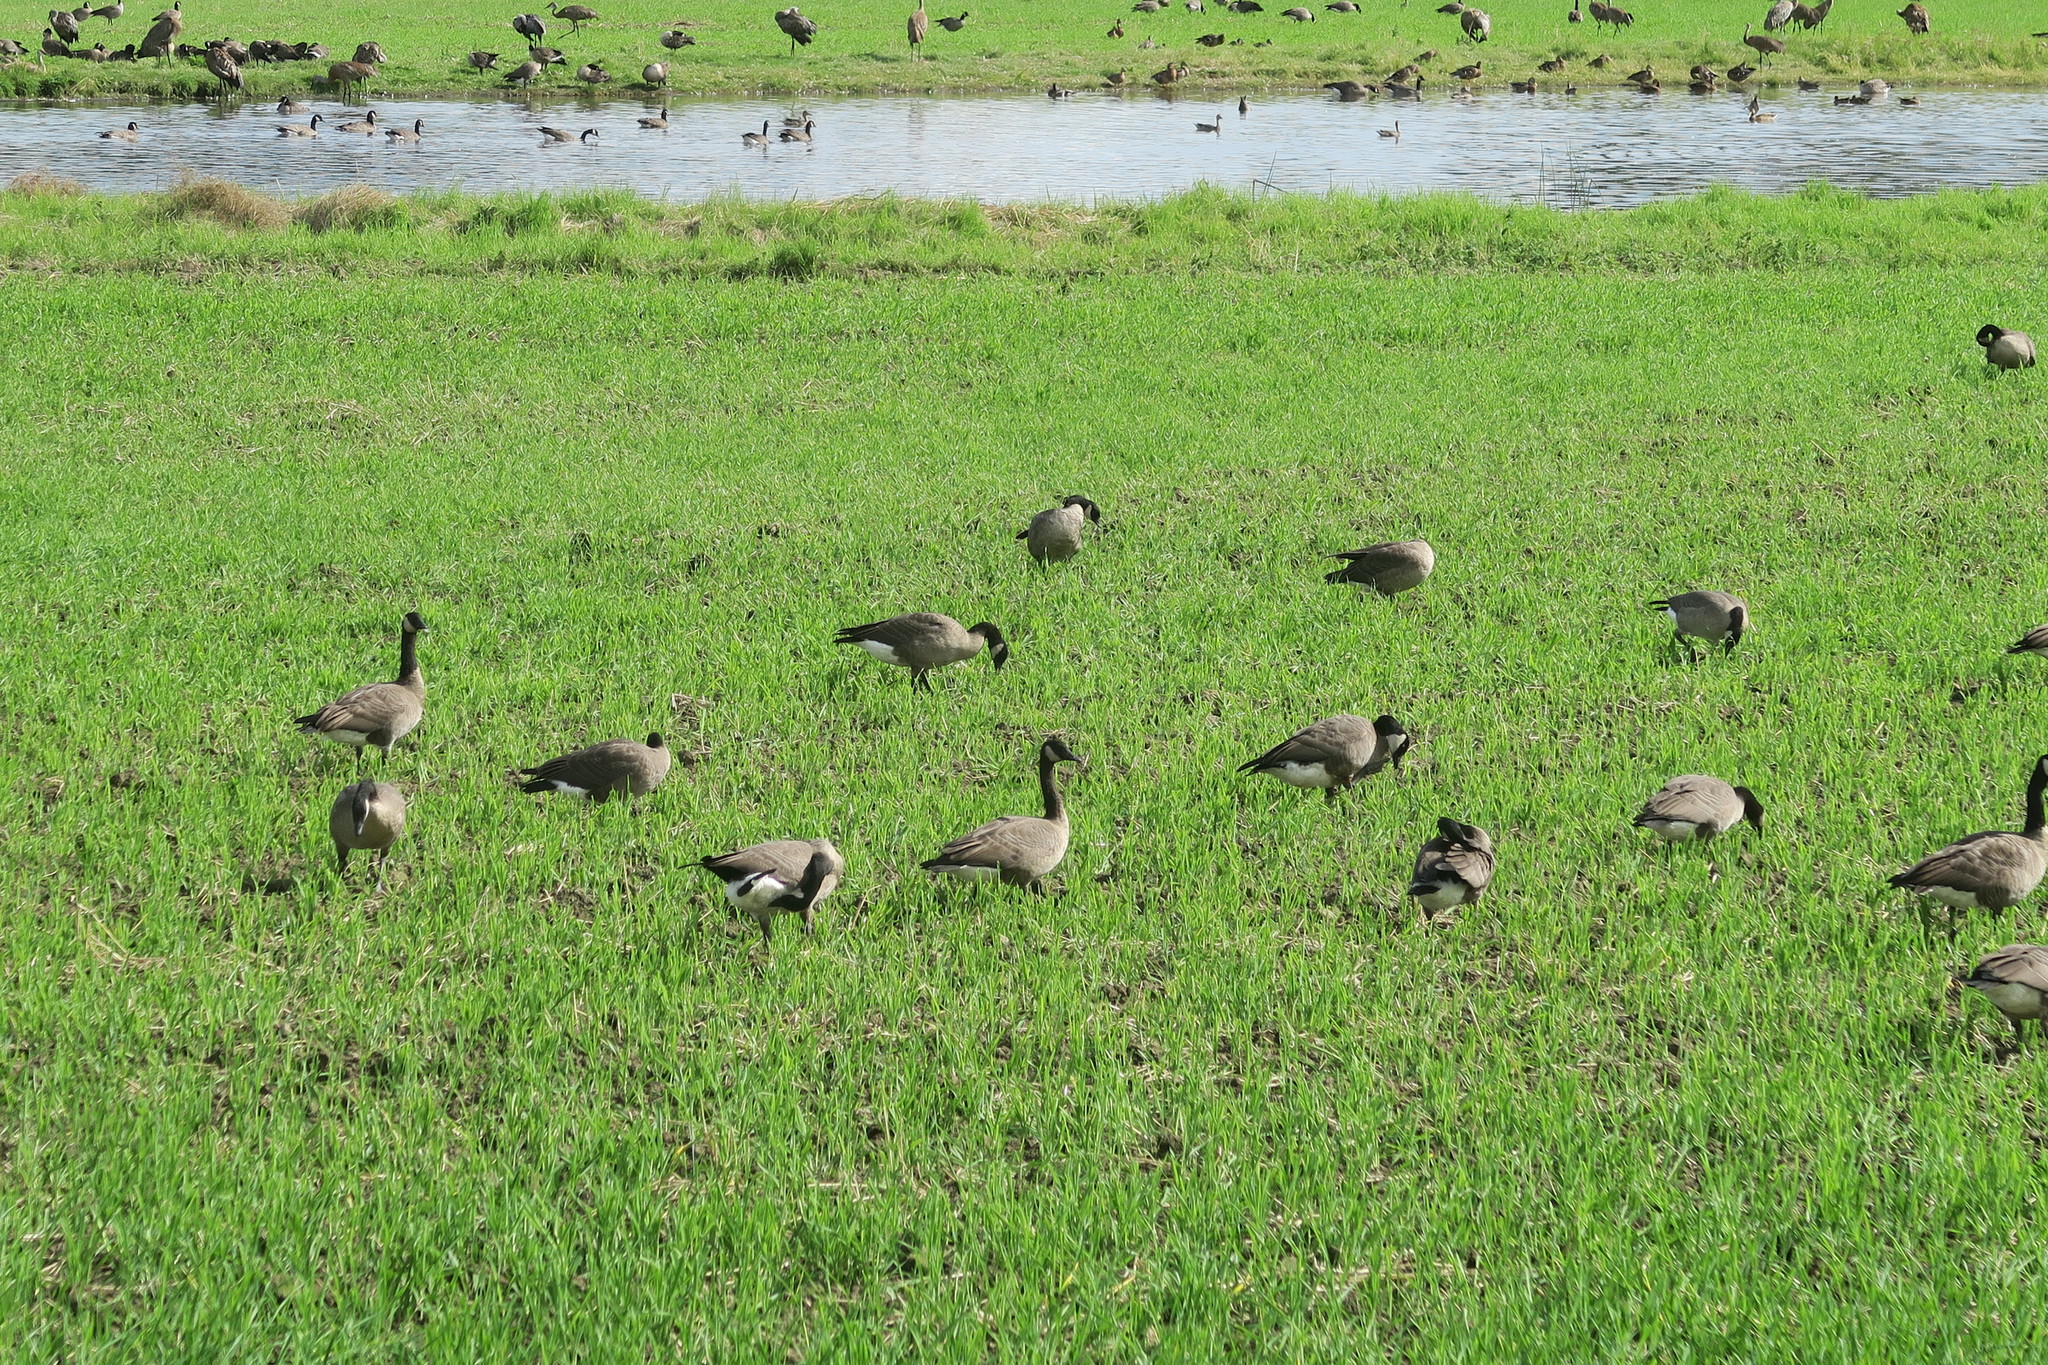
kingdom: Animalia
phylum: Chordata
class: Aves
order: Anseriformes
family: Anatidae
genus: Branta
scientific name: Branta canadensis
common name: Canada goose
